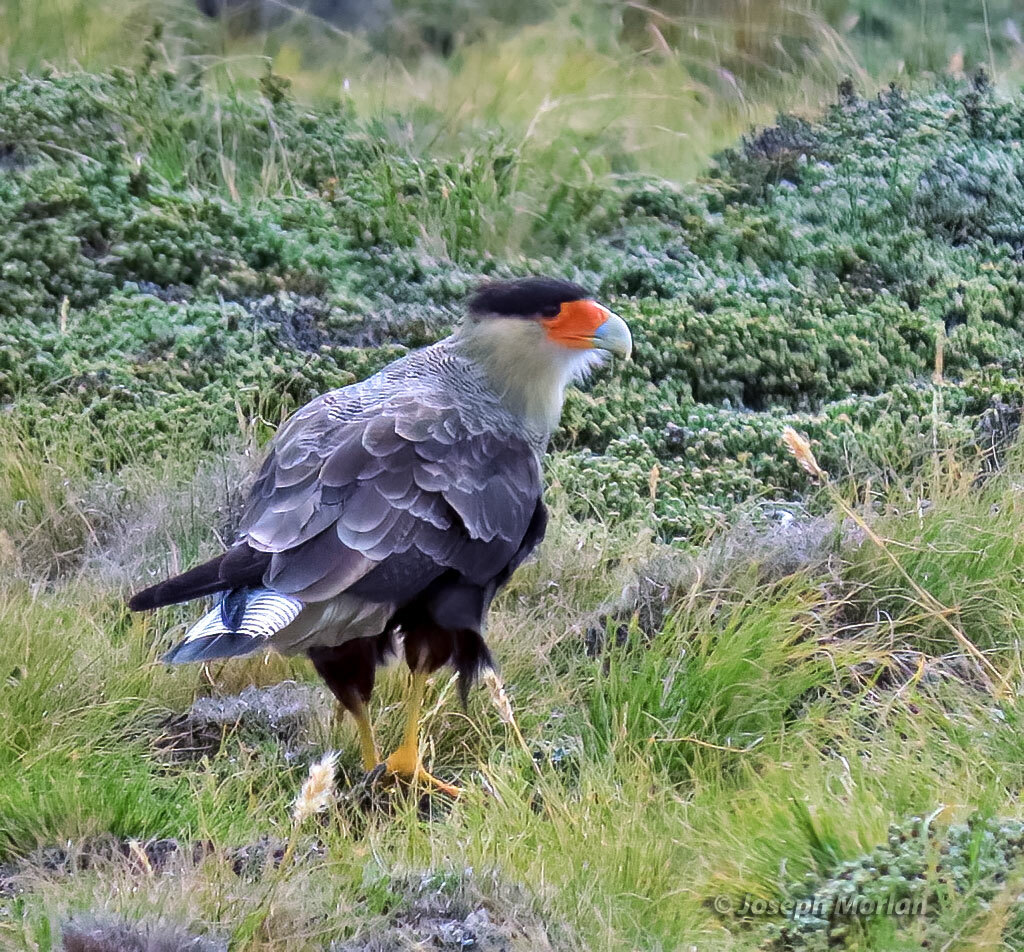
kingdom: Animalia
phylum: Chordata
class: Aves
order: Falconiformes
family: Falconidae
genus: Caracara
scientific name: Caracara plancus
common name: Southern caracara
